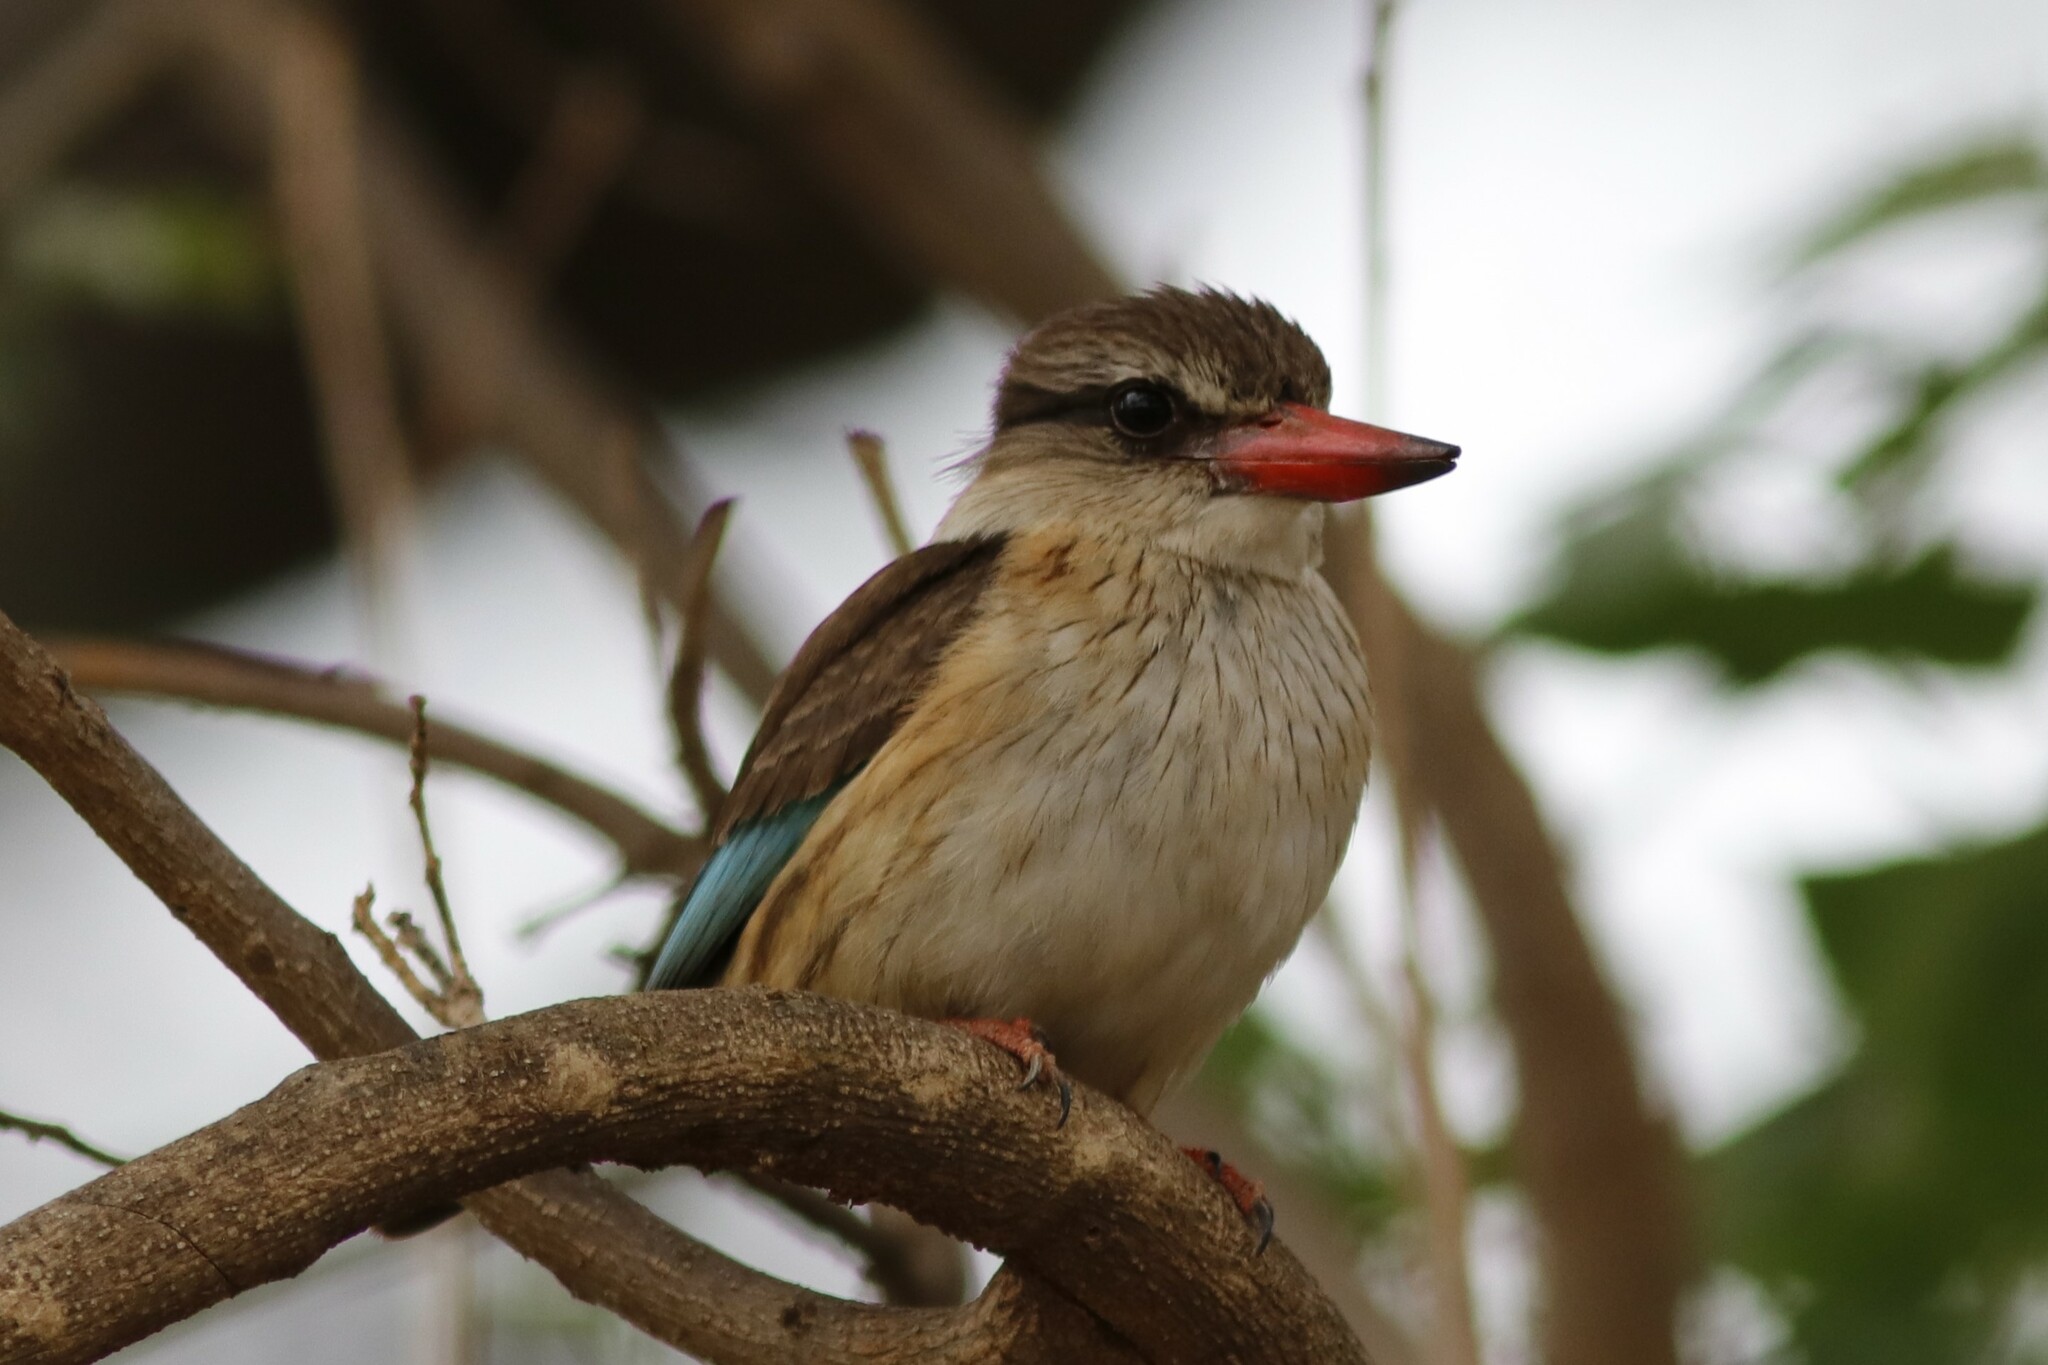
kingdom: Animalia
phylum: Chordata
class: Aves
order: Coraciiformes
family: Alcedinidae
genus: Halcyon
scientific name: Halcyon albiventris
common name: Brown-hooded kingfisher
